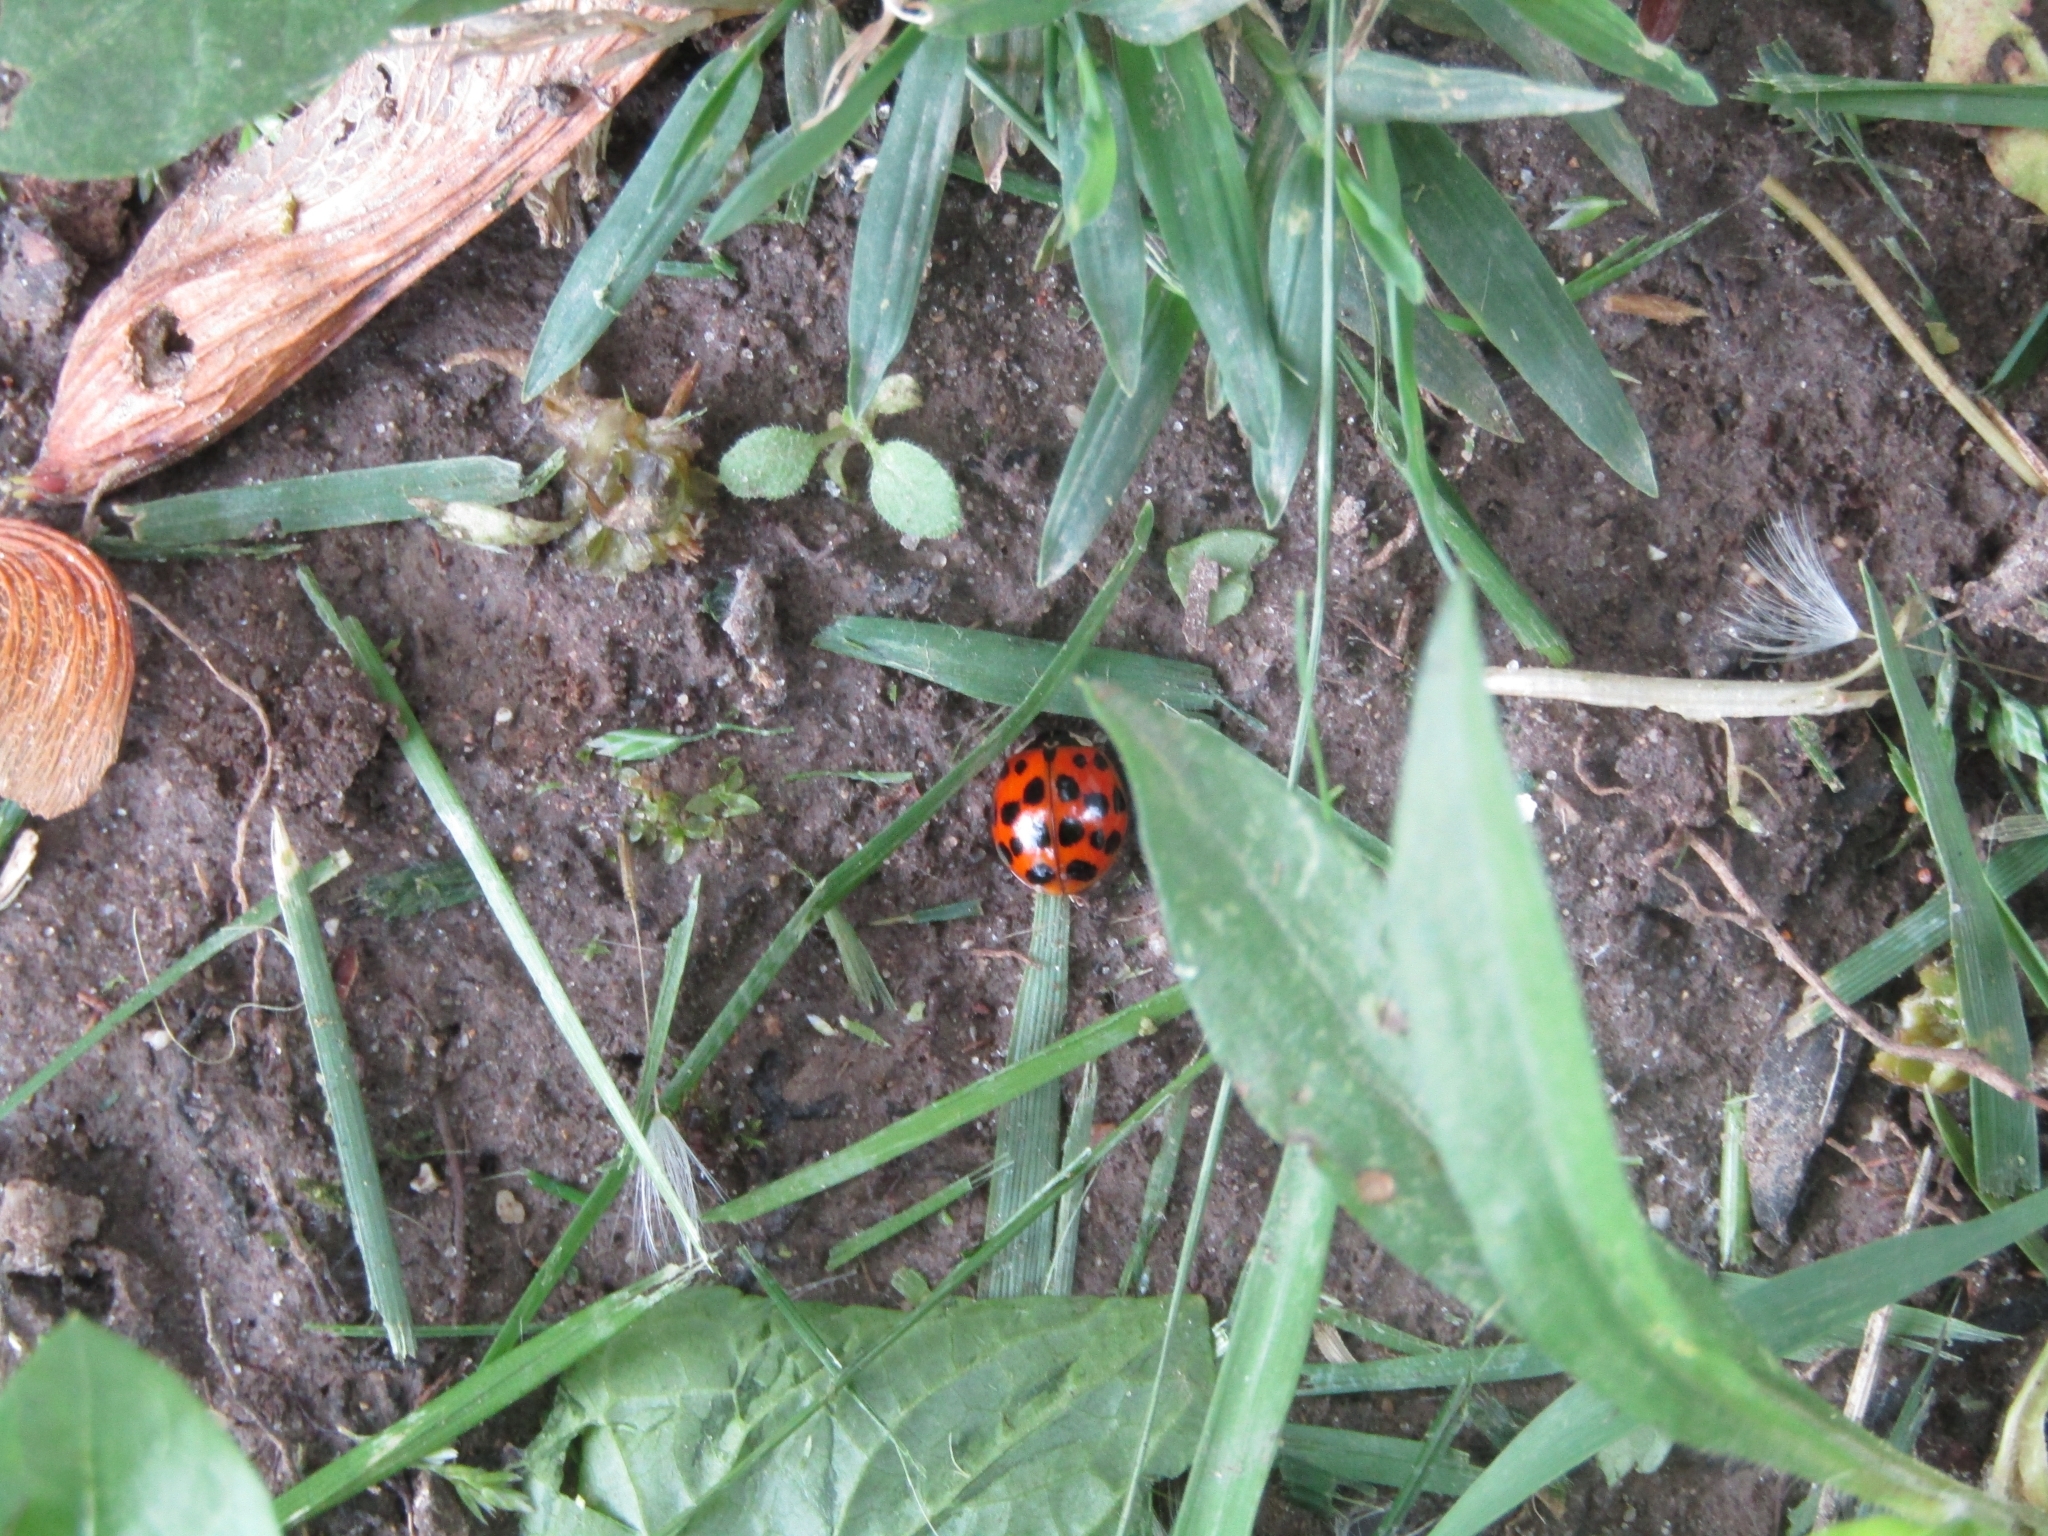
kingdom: Animalia
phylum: Arthropoda
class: Insecta
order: Coleoptera
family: Coccinellidae
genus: Harmonia
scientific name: Harmonia axyridis
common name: Harlequin ladybird
